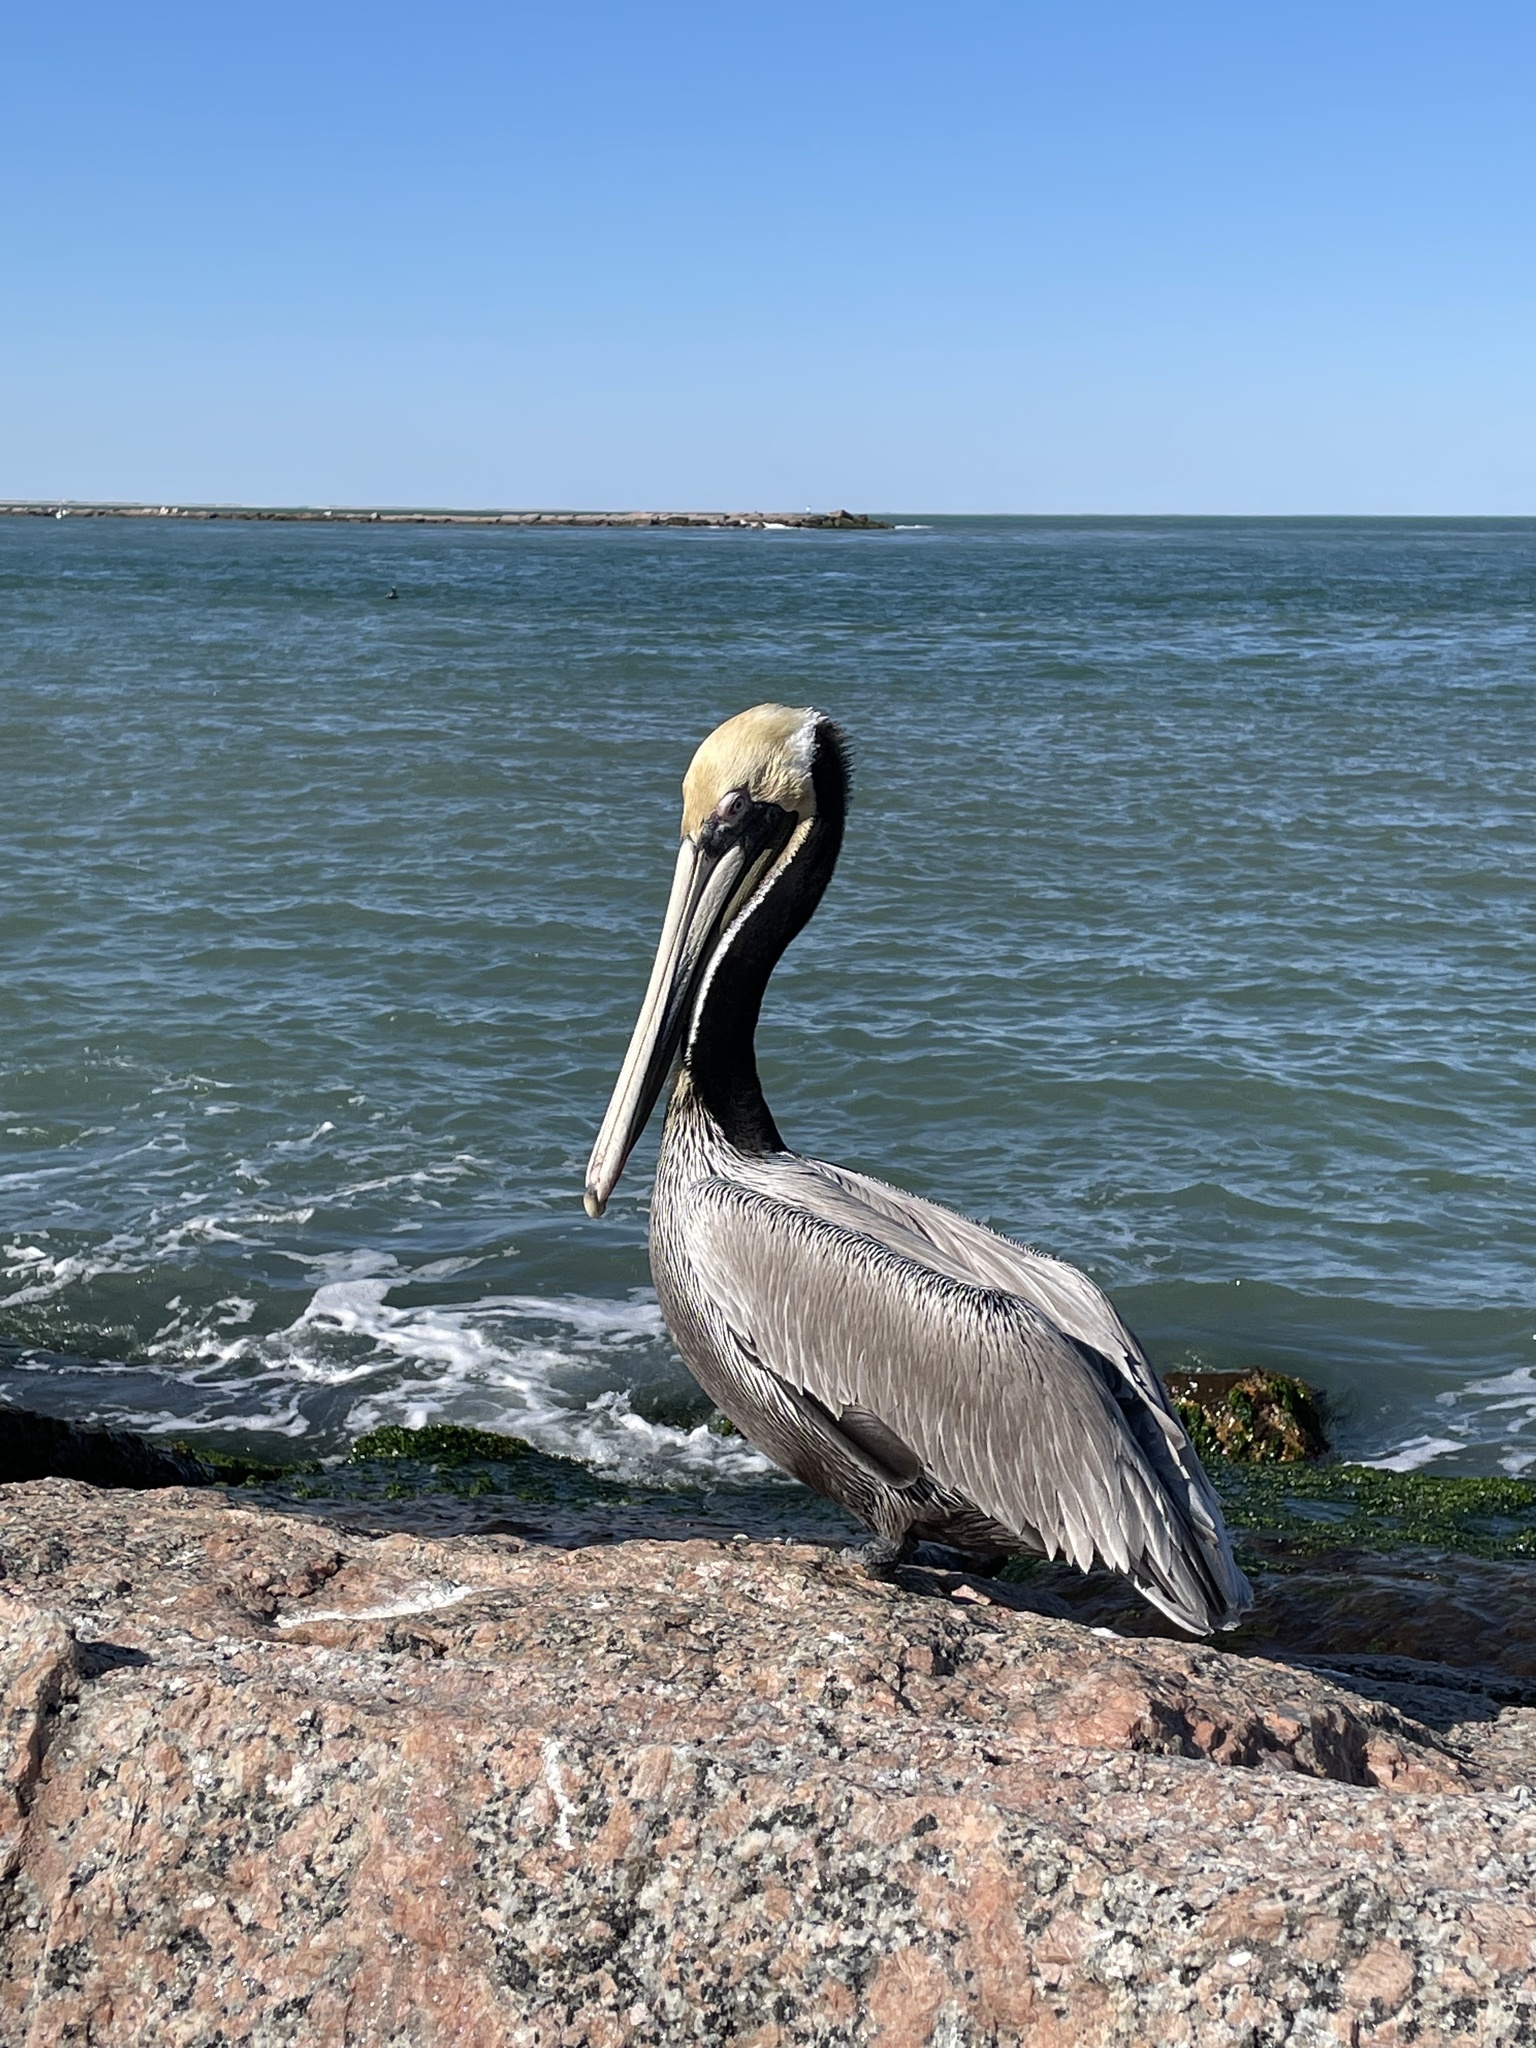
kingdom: Animalia
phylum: Chordata
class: Aves
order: Pelecaniformes
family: Pelecanidae
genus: Pelecanus
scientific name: Pelecanus occidentalis
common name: Brown pelican
